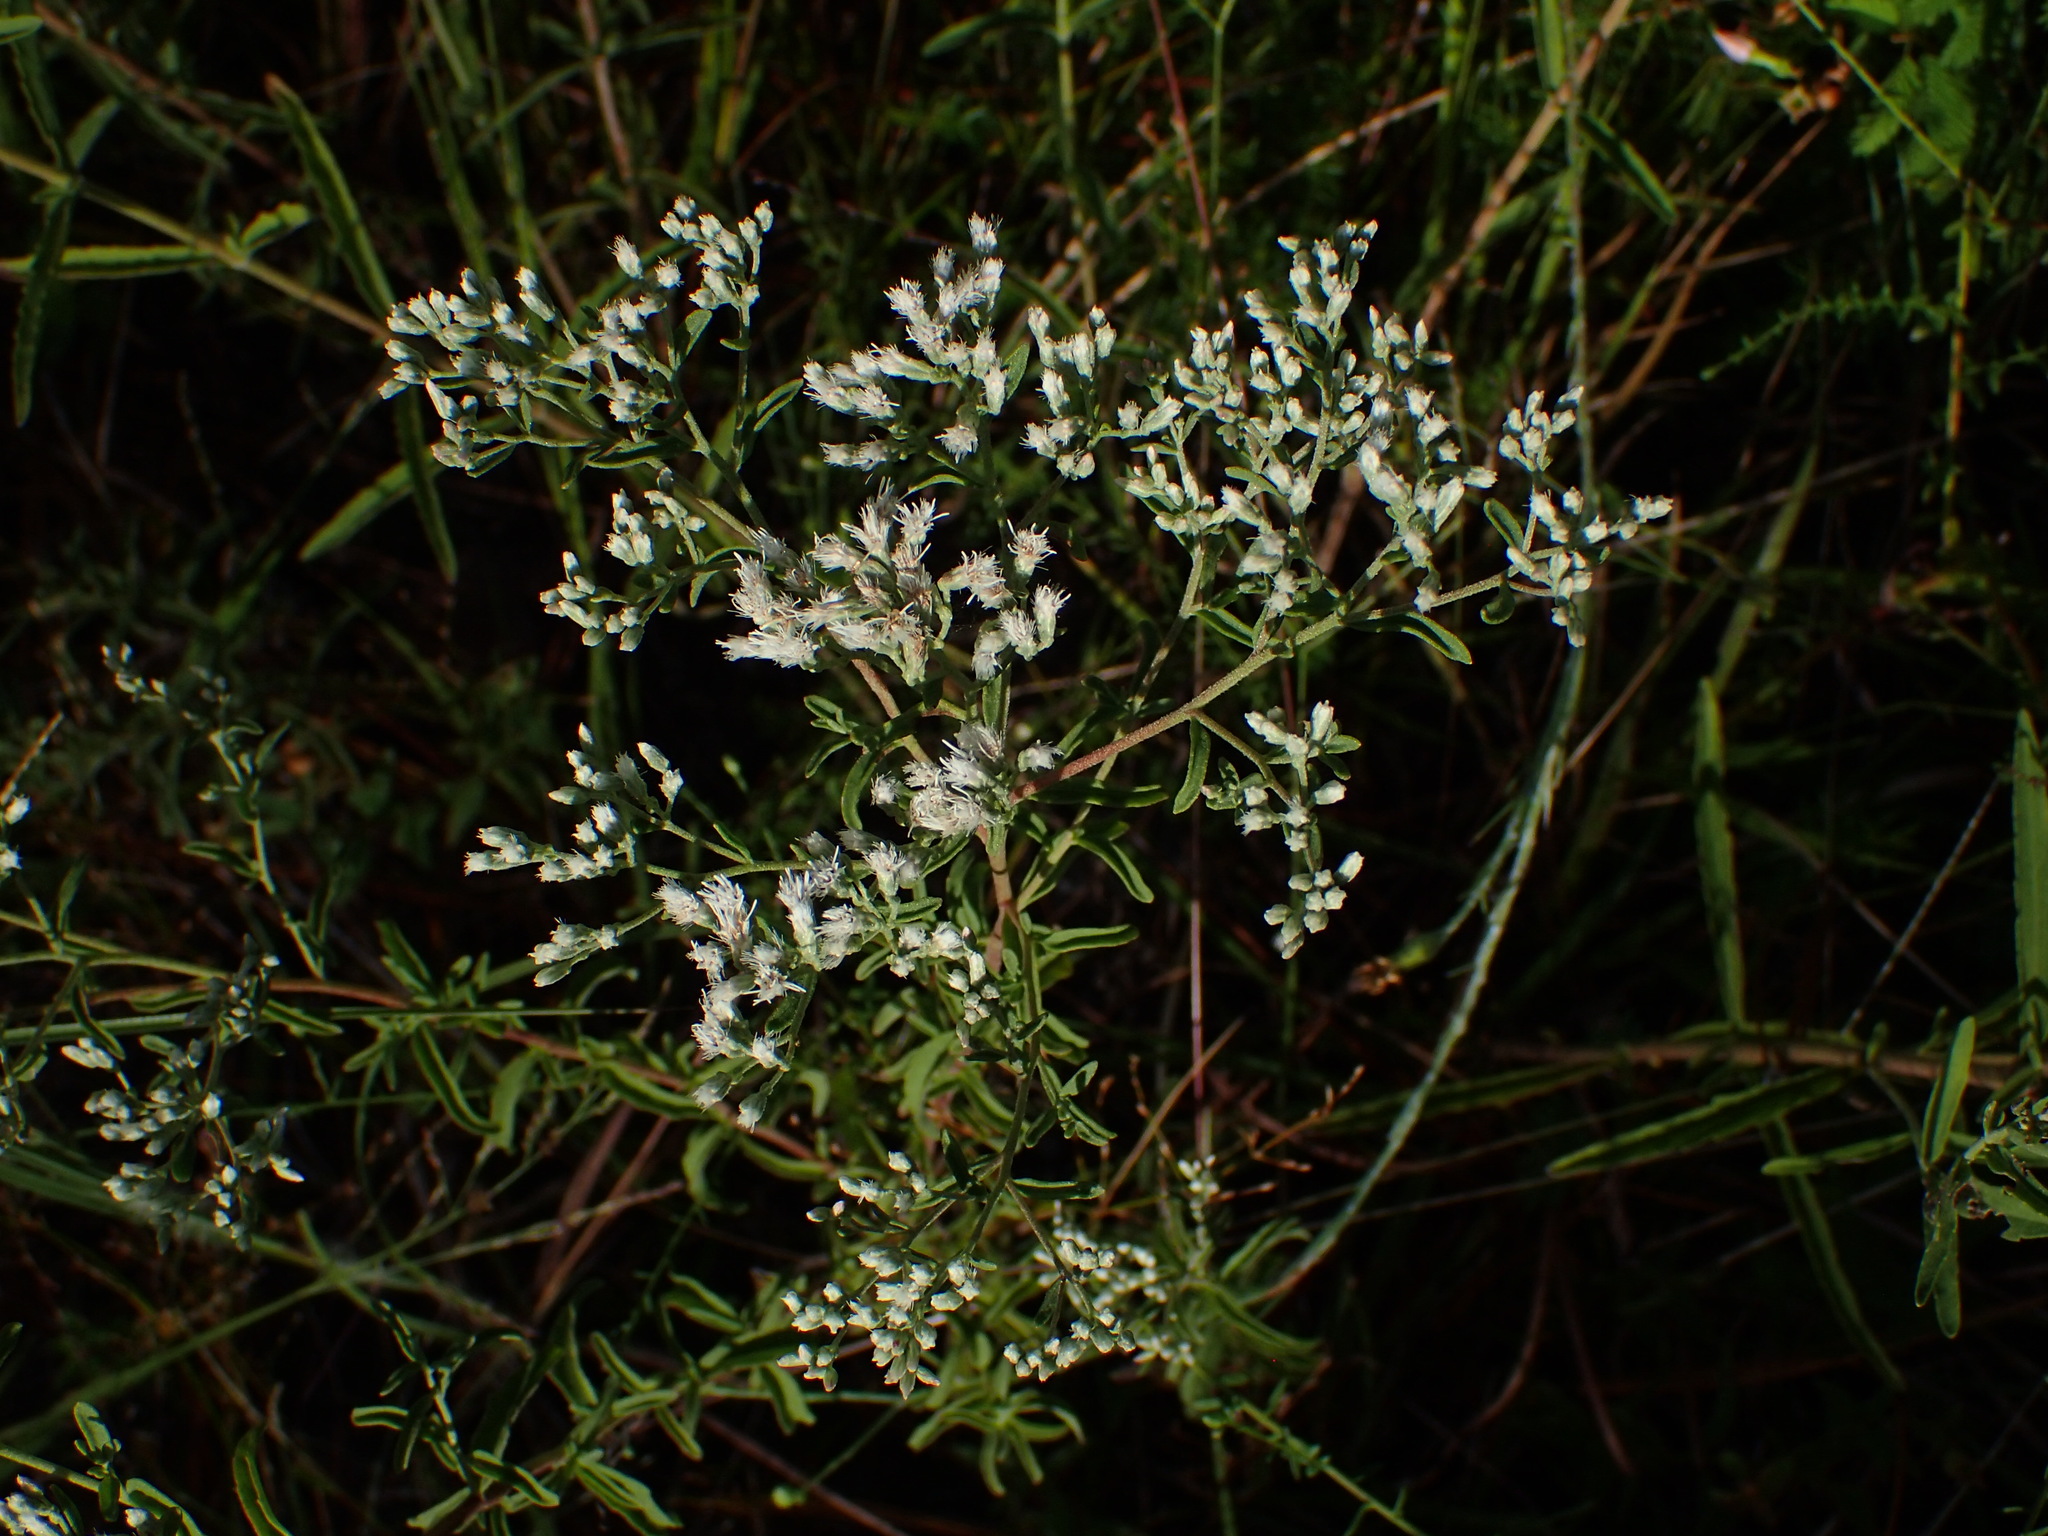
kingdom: Plantae
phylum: Tracheophyta
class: Magnoliopsida
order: Asterales
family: Asteraceae
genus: Eupatorium
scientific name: Eupatorium mohrii
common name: Mohr's thoroughwort
